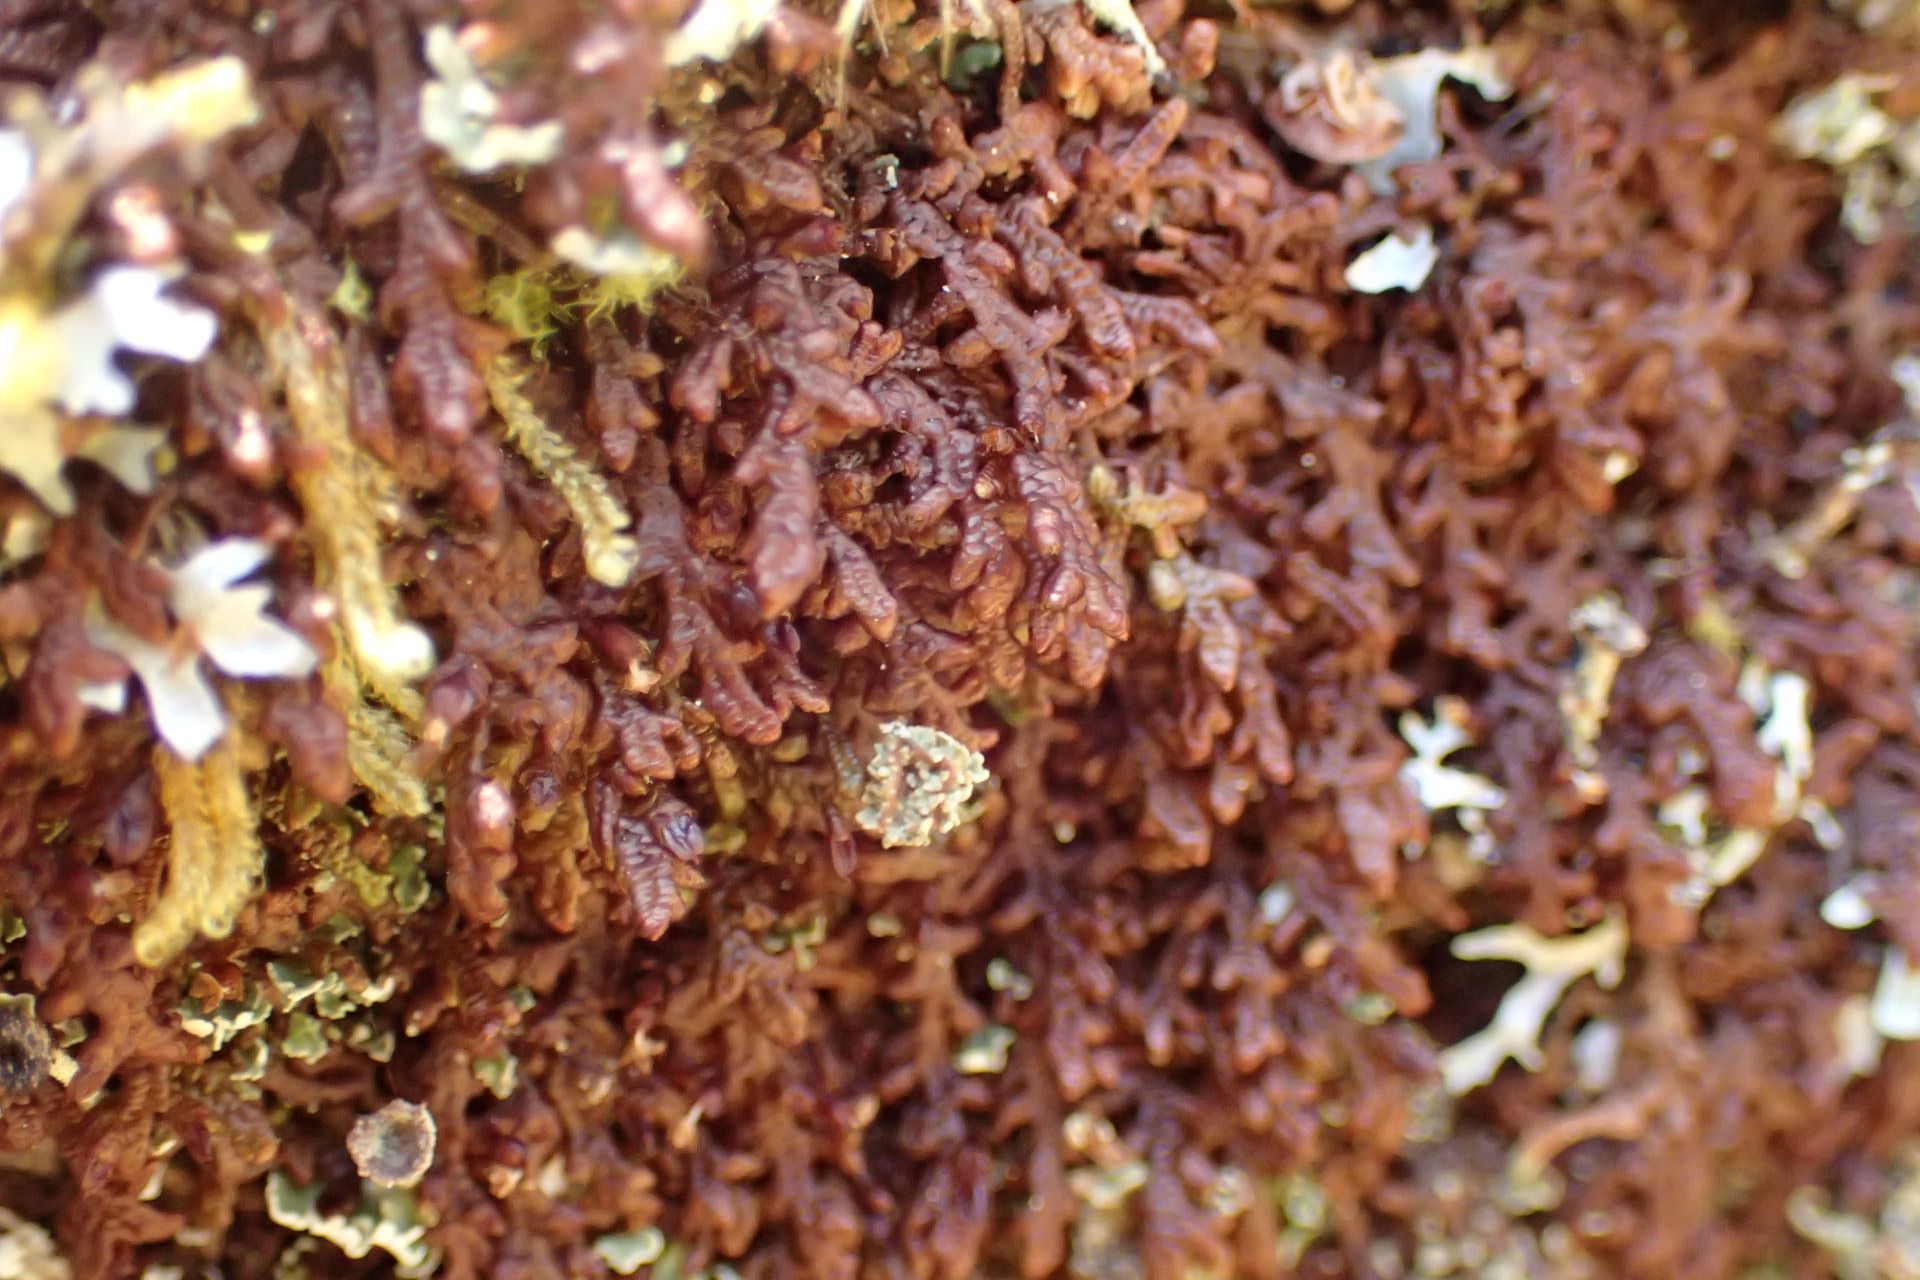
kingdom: Plantae
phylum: Marchantiophyta
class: Jungermanniopsida
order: Porellales
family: Frullaniaceae
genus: Frullania
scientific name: Frullania asagrayana
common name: Asa gray s scalewort
